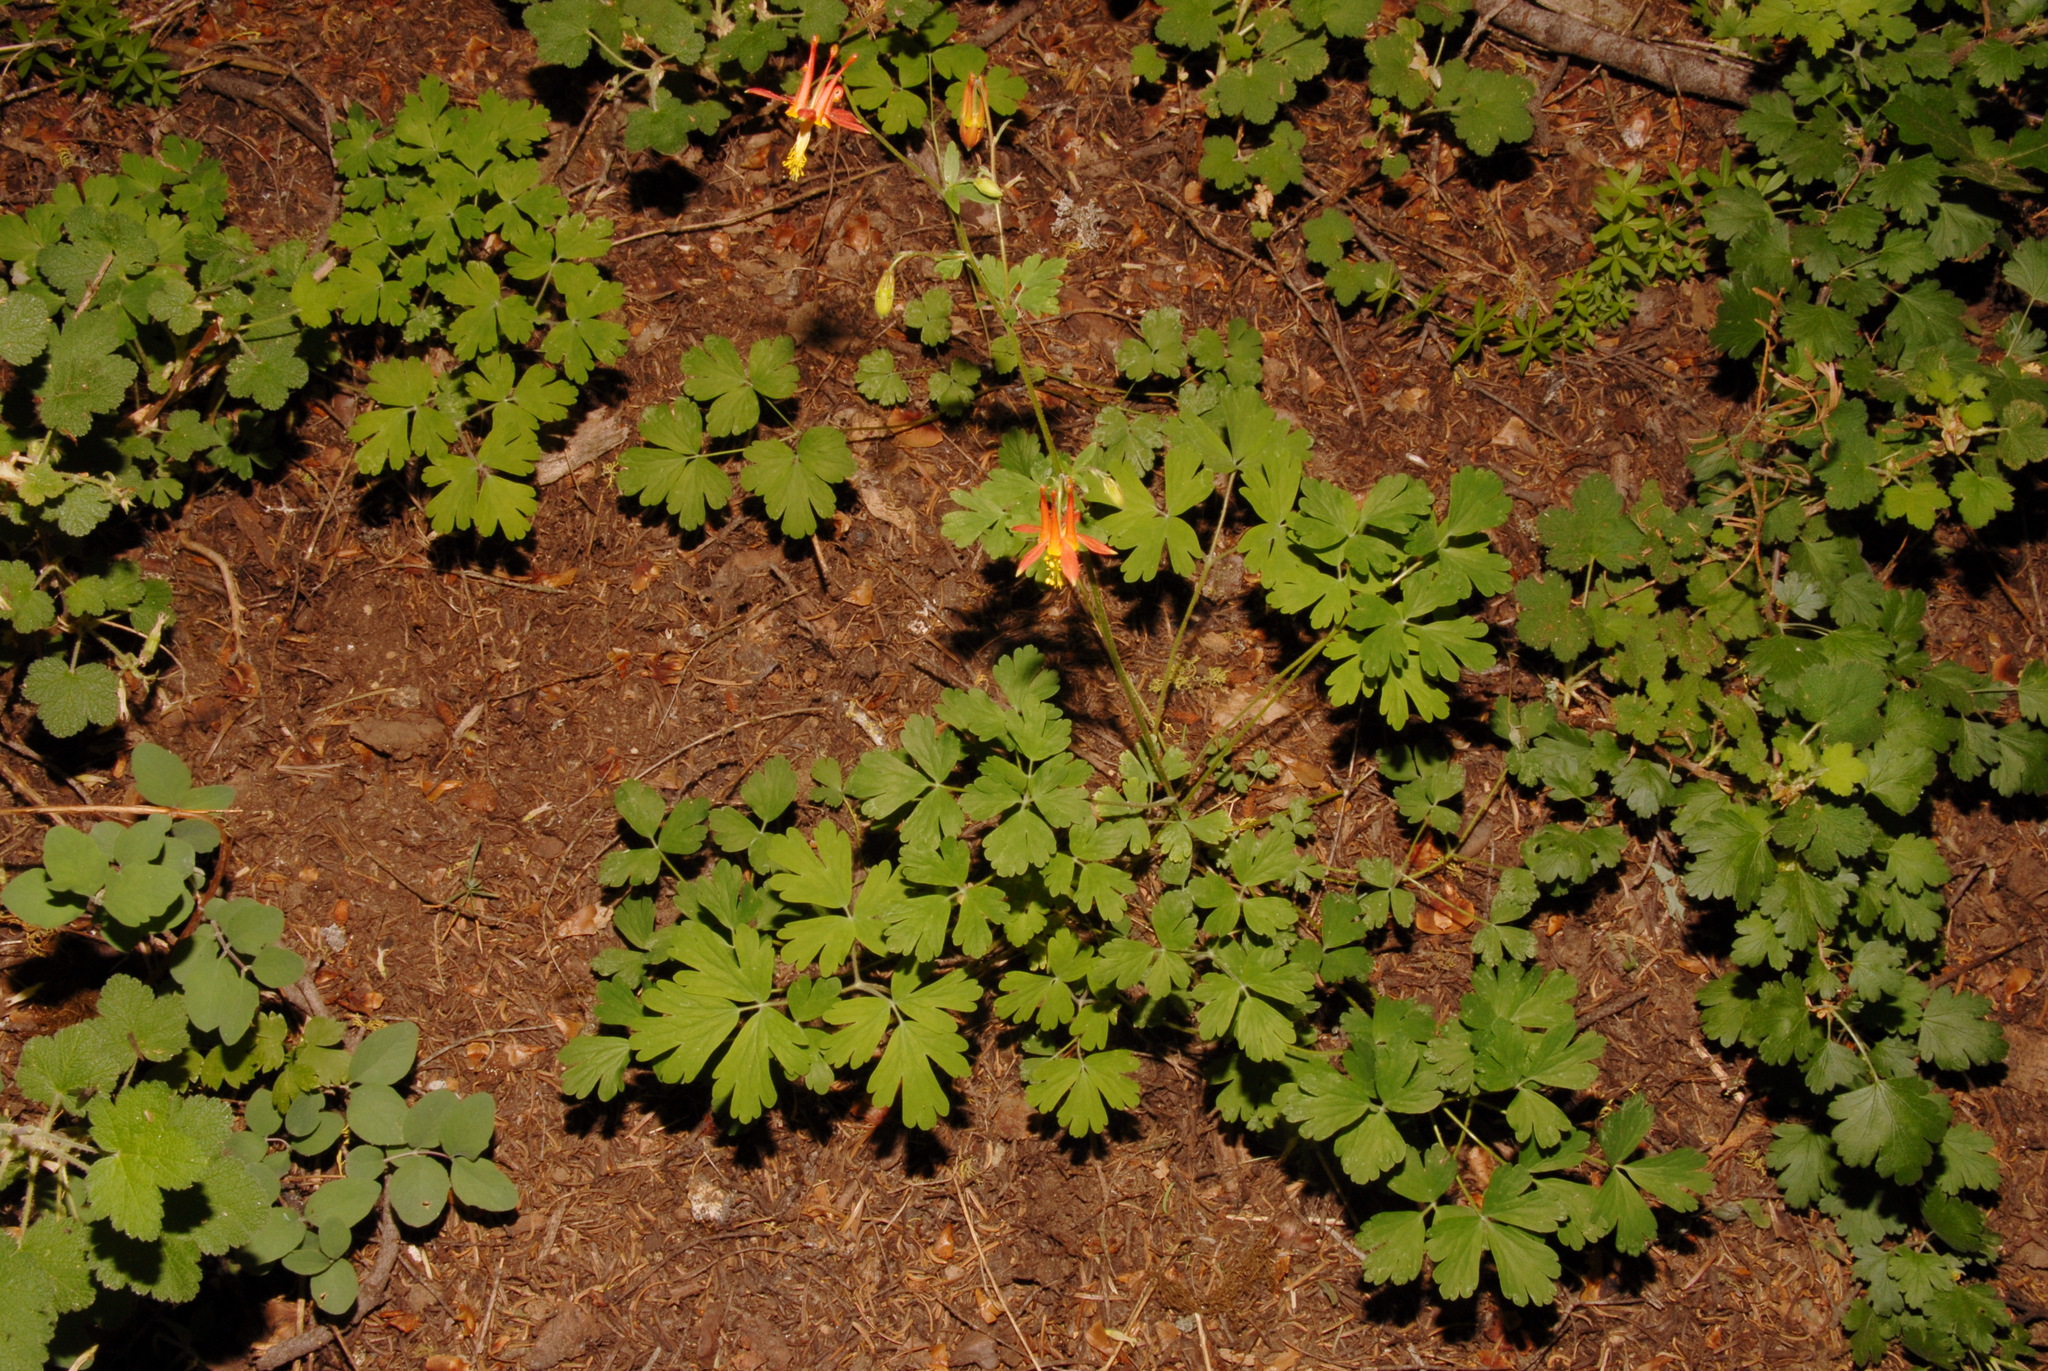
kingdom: Plantae
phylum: Tracheophyta
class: Magnoliopsida
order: Ranunculales
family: Ranunculaceae
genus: Aquilegia
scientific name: Aquilegia formosa
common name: Sitka columbine
